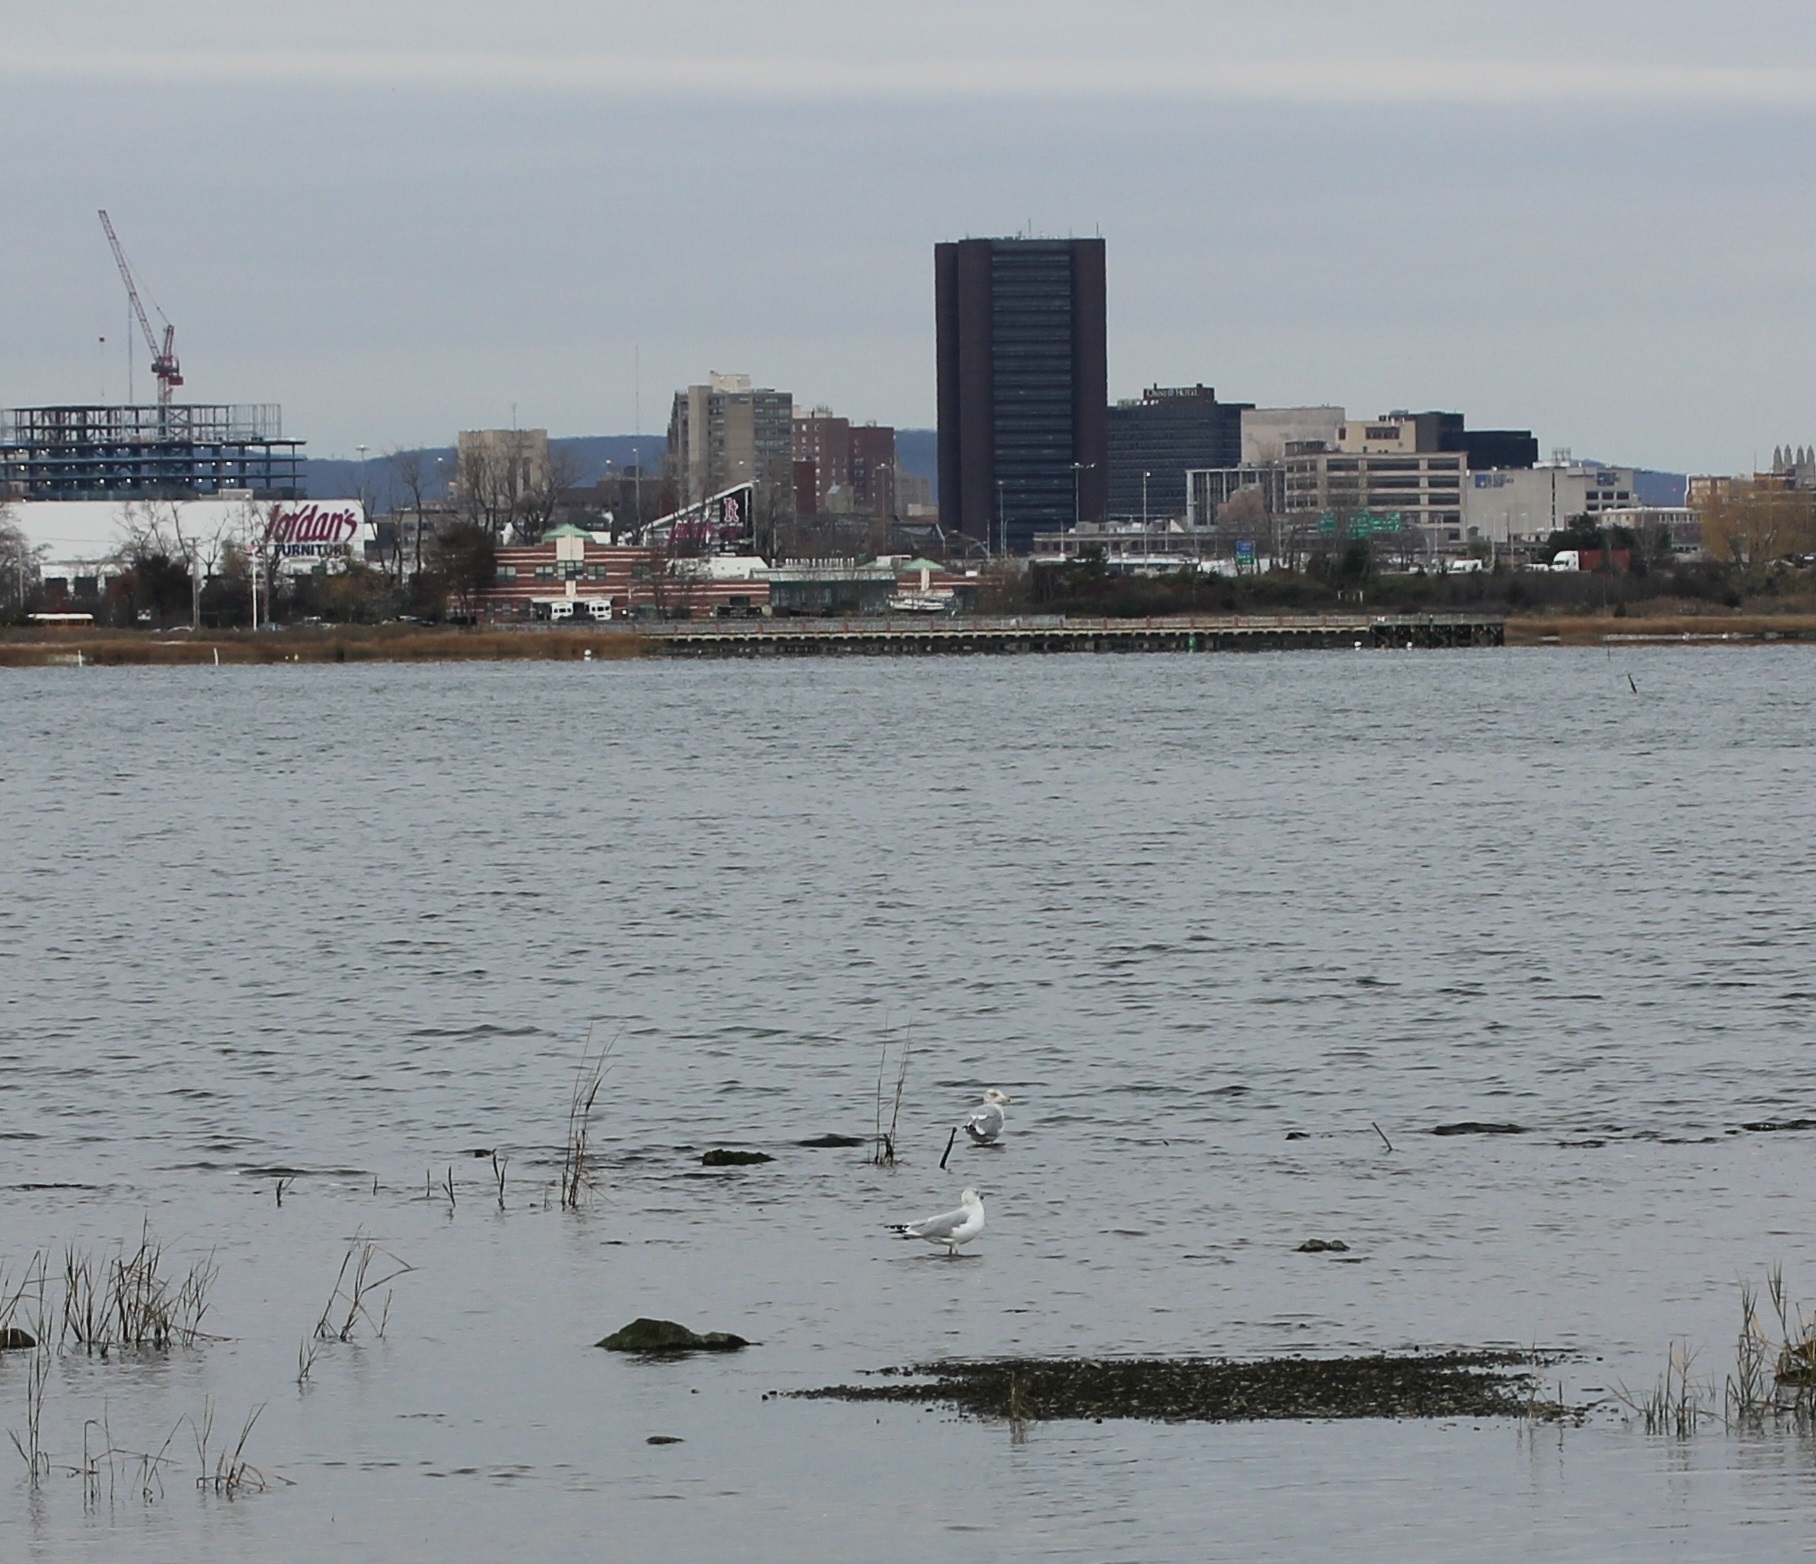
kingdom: Animalia
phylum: Chordata
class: Aves
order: Charadriiformes
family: Laridae
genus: Larus
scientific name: Larus argentatus
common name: Herring gull
